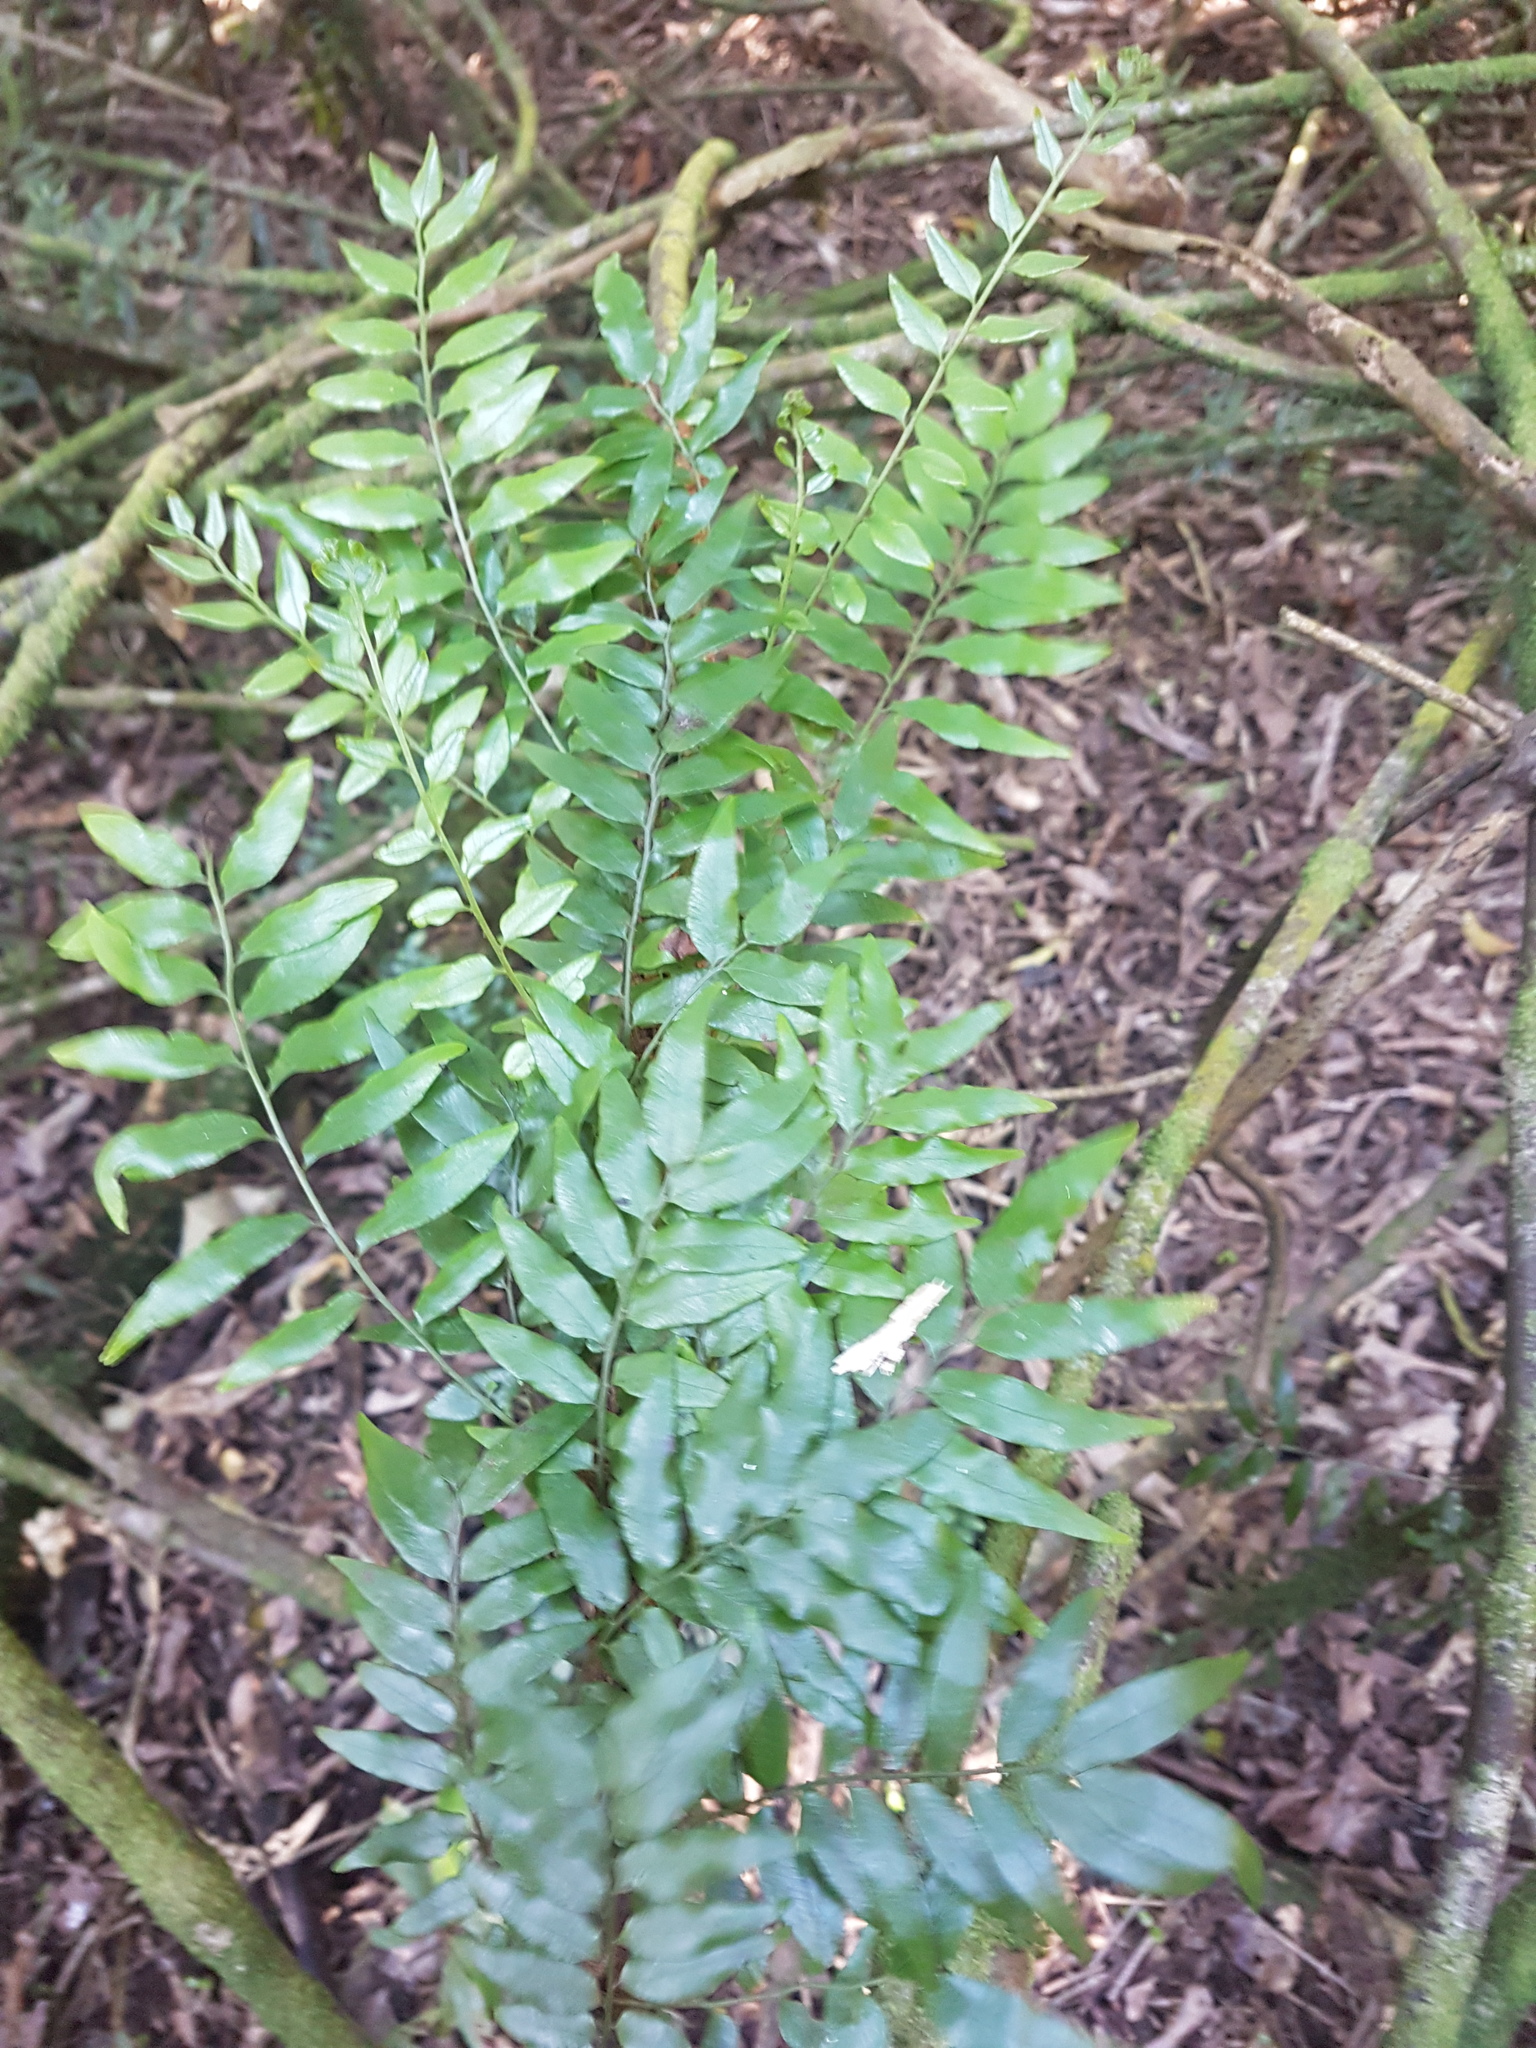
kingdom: Plantae
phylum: Tracheophyta
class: Polypodiopsida
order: Polypodiales
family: Tectariaceae
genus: Arthropteris
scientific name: Arthropteris tenella
